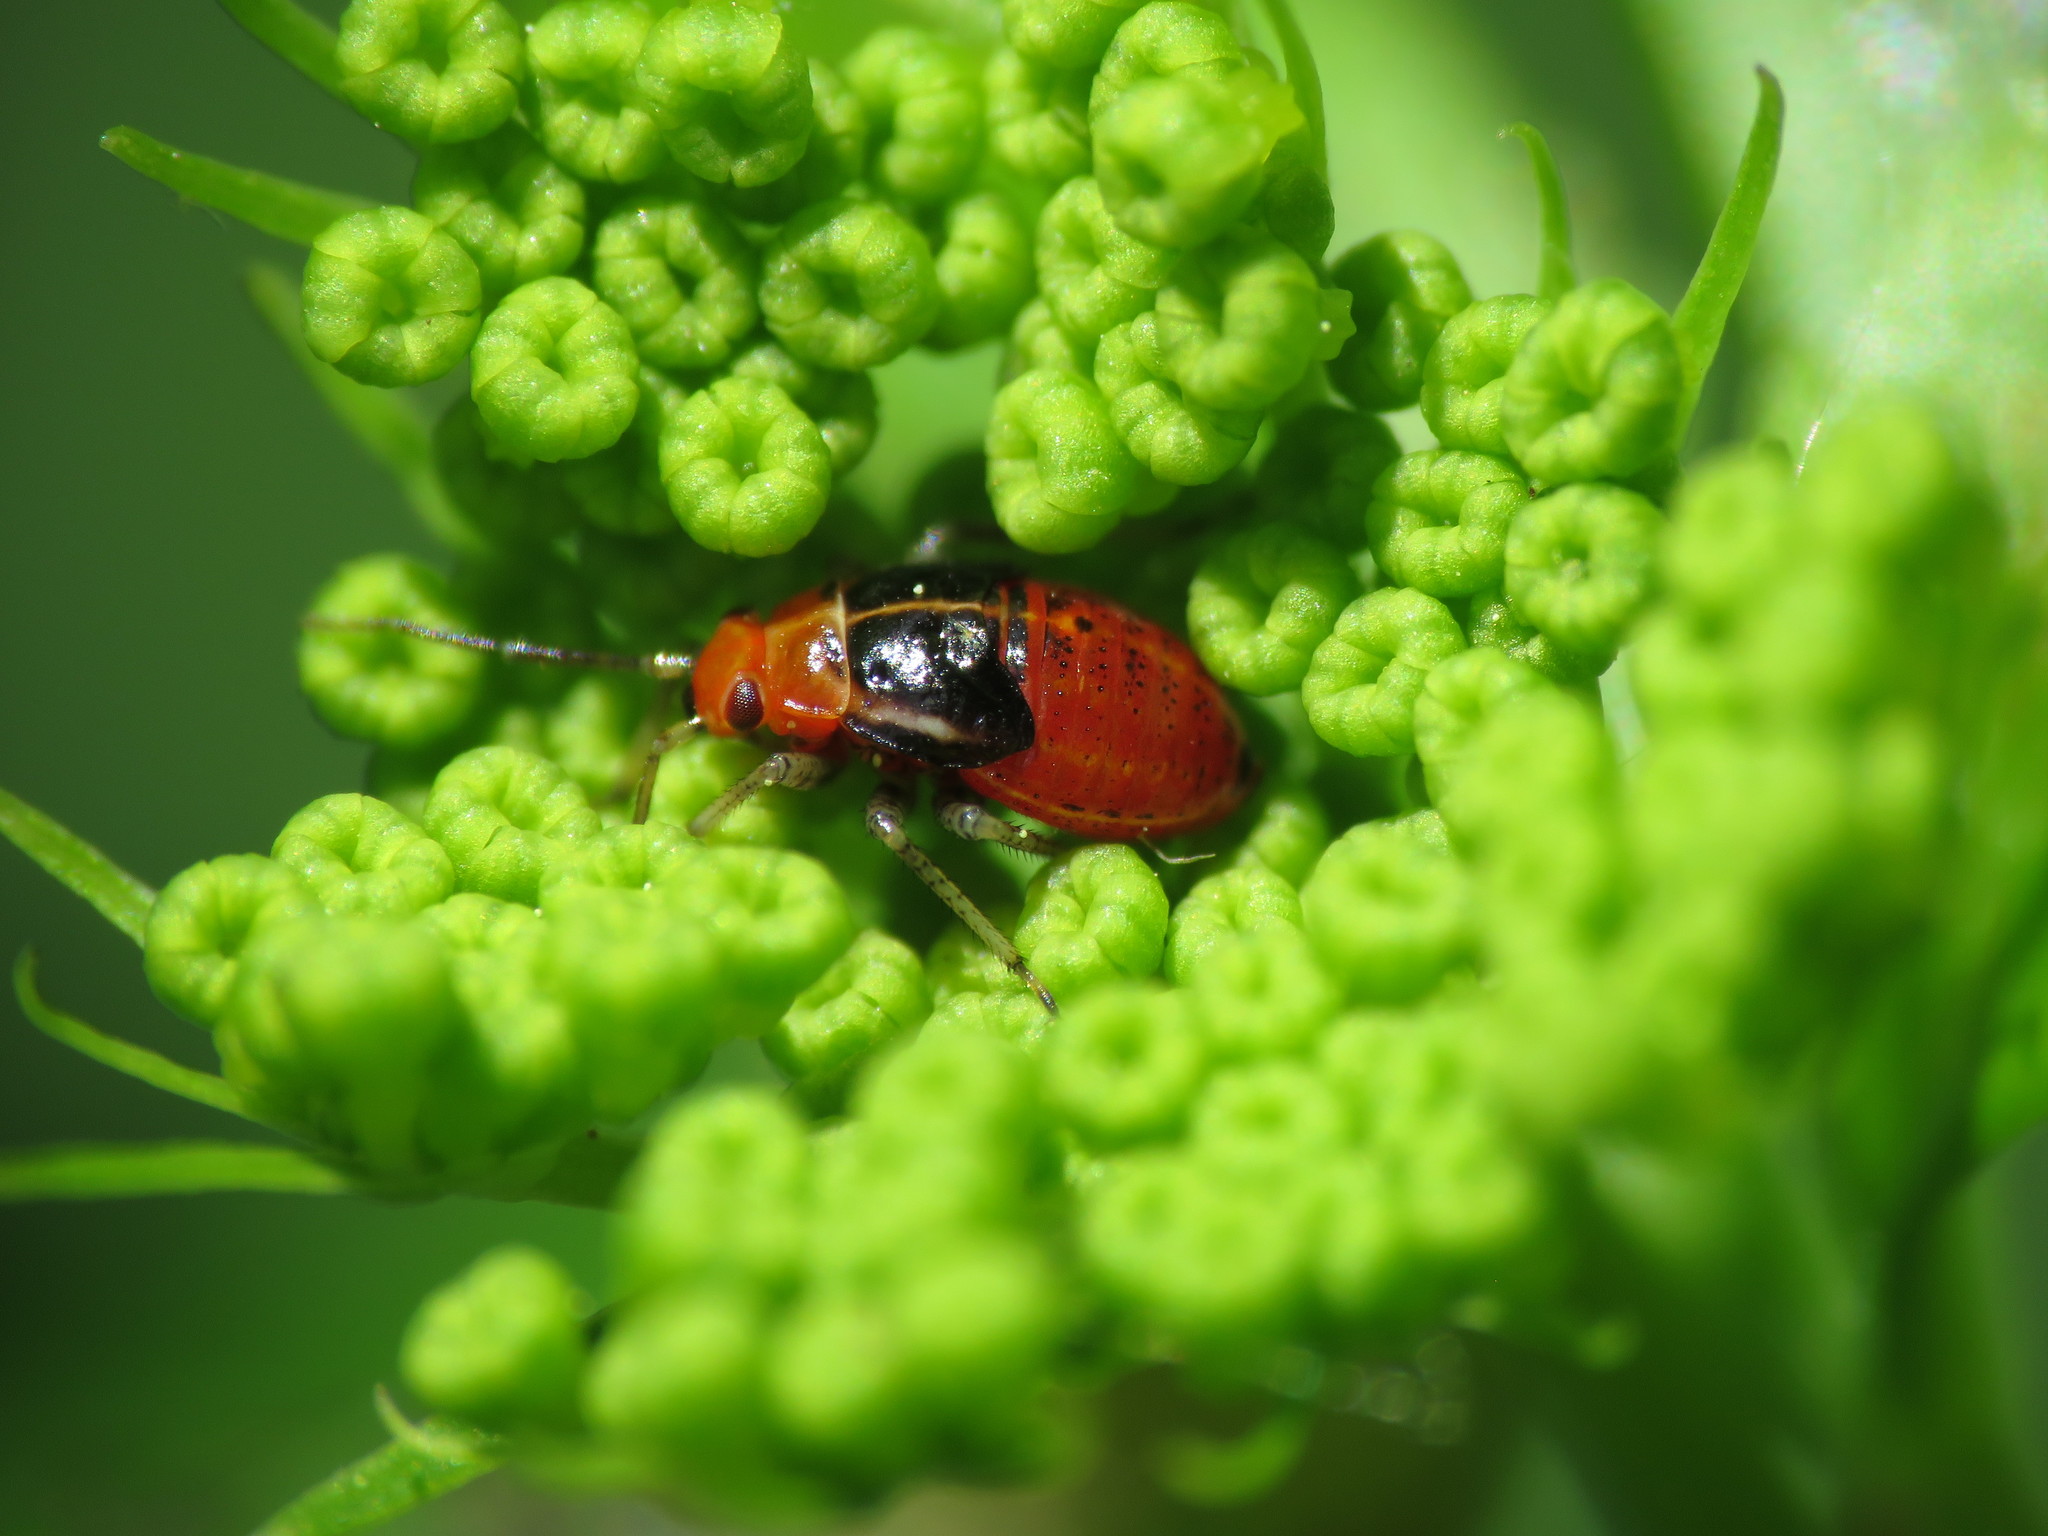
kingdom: Animalia
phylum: Arthropoda
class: Insecta
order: Hemiptera
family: Miridae
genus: Poecilocapsus
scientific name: Poecilocapsus lineatus
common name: Four-lined plant bug
